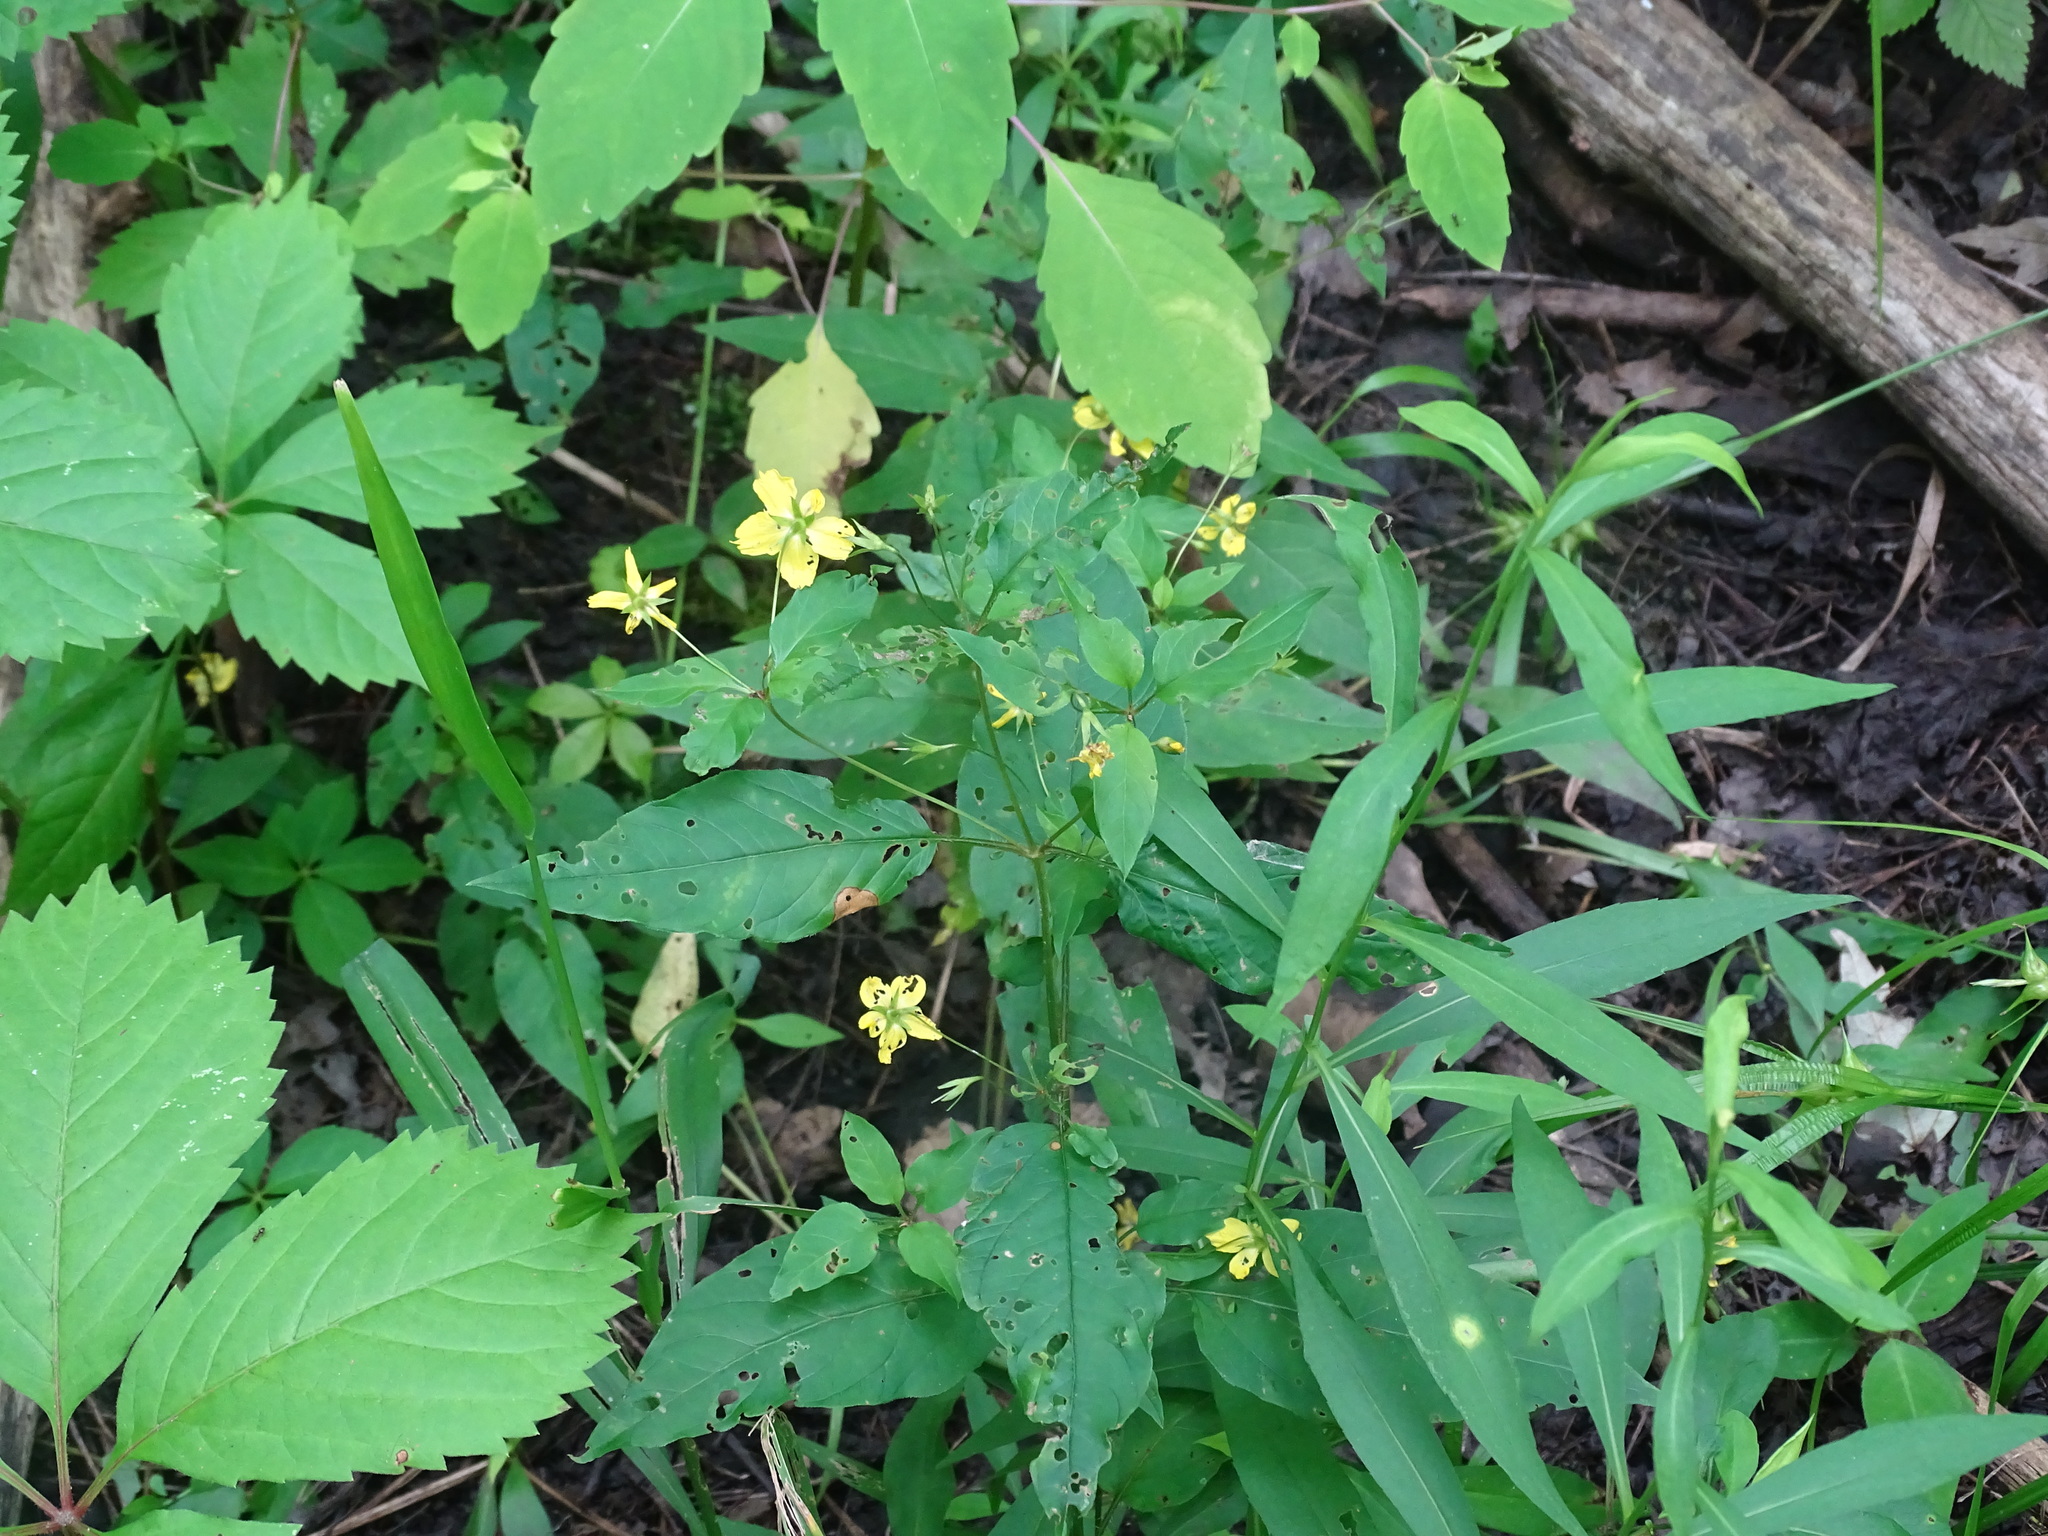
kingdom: Plantae
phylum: Tracheophyta
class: Magnoliopsida
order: Ericales
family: Primulaceae
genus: Lysimachia
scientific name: Lysimachia ciliata
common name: Fringed loosestrife
